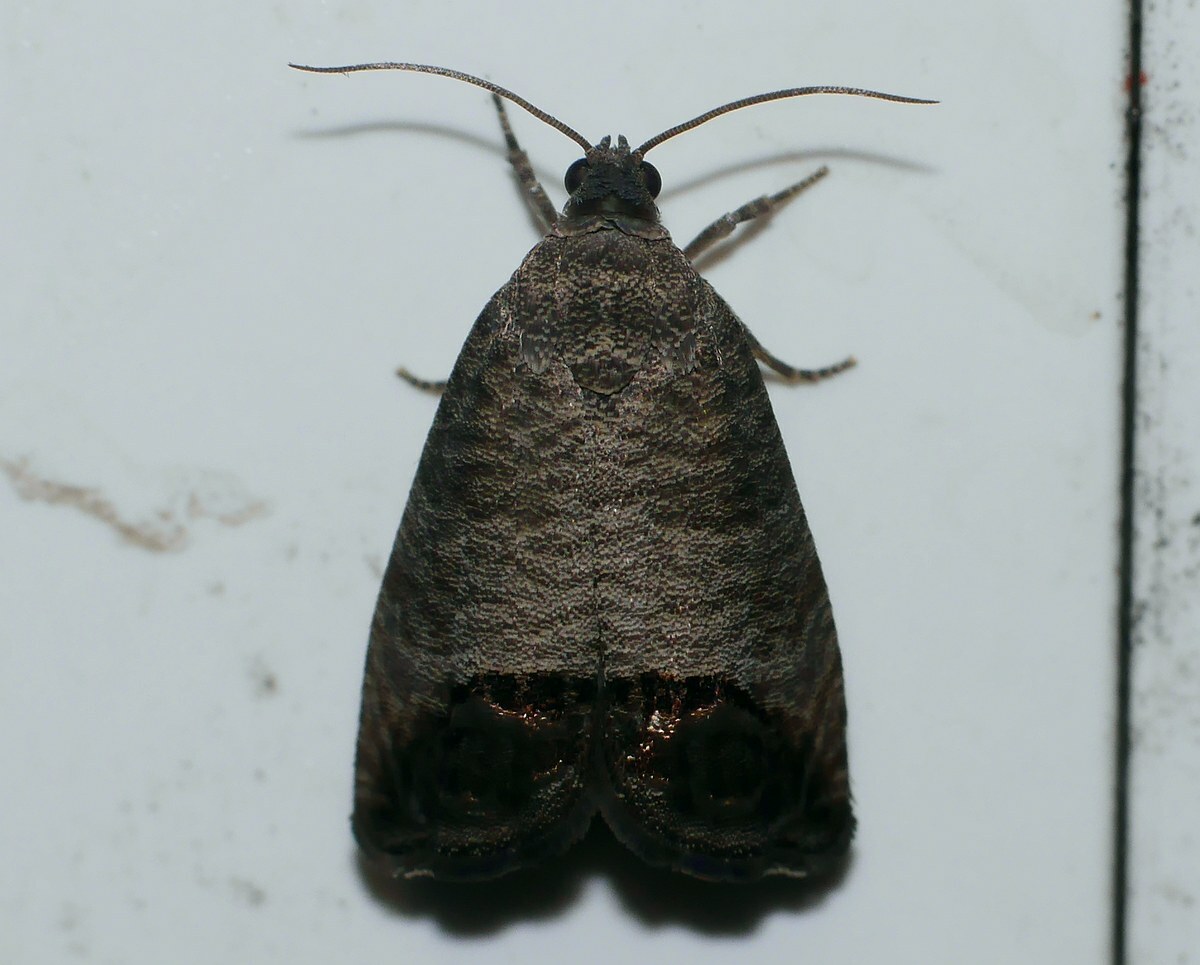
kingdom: Animalia
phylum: Arthropoda
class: Insecta
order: Lepidoptera
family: Tortricidae
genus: Cydia
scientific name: Cydia pomonella
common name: Codling moth
